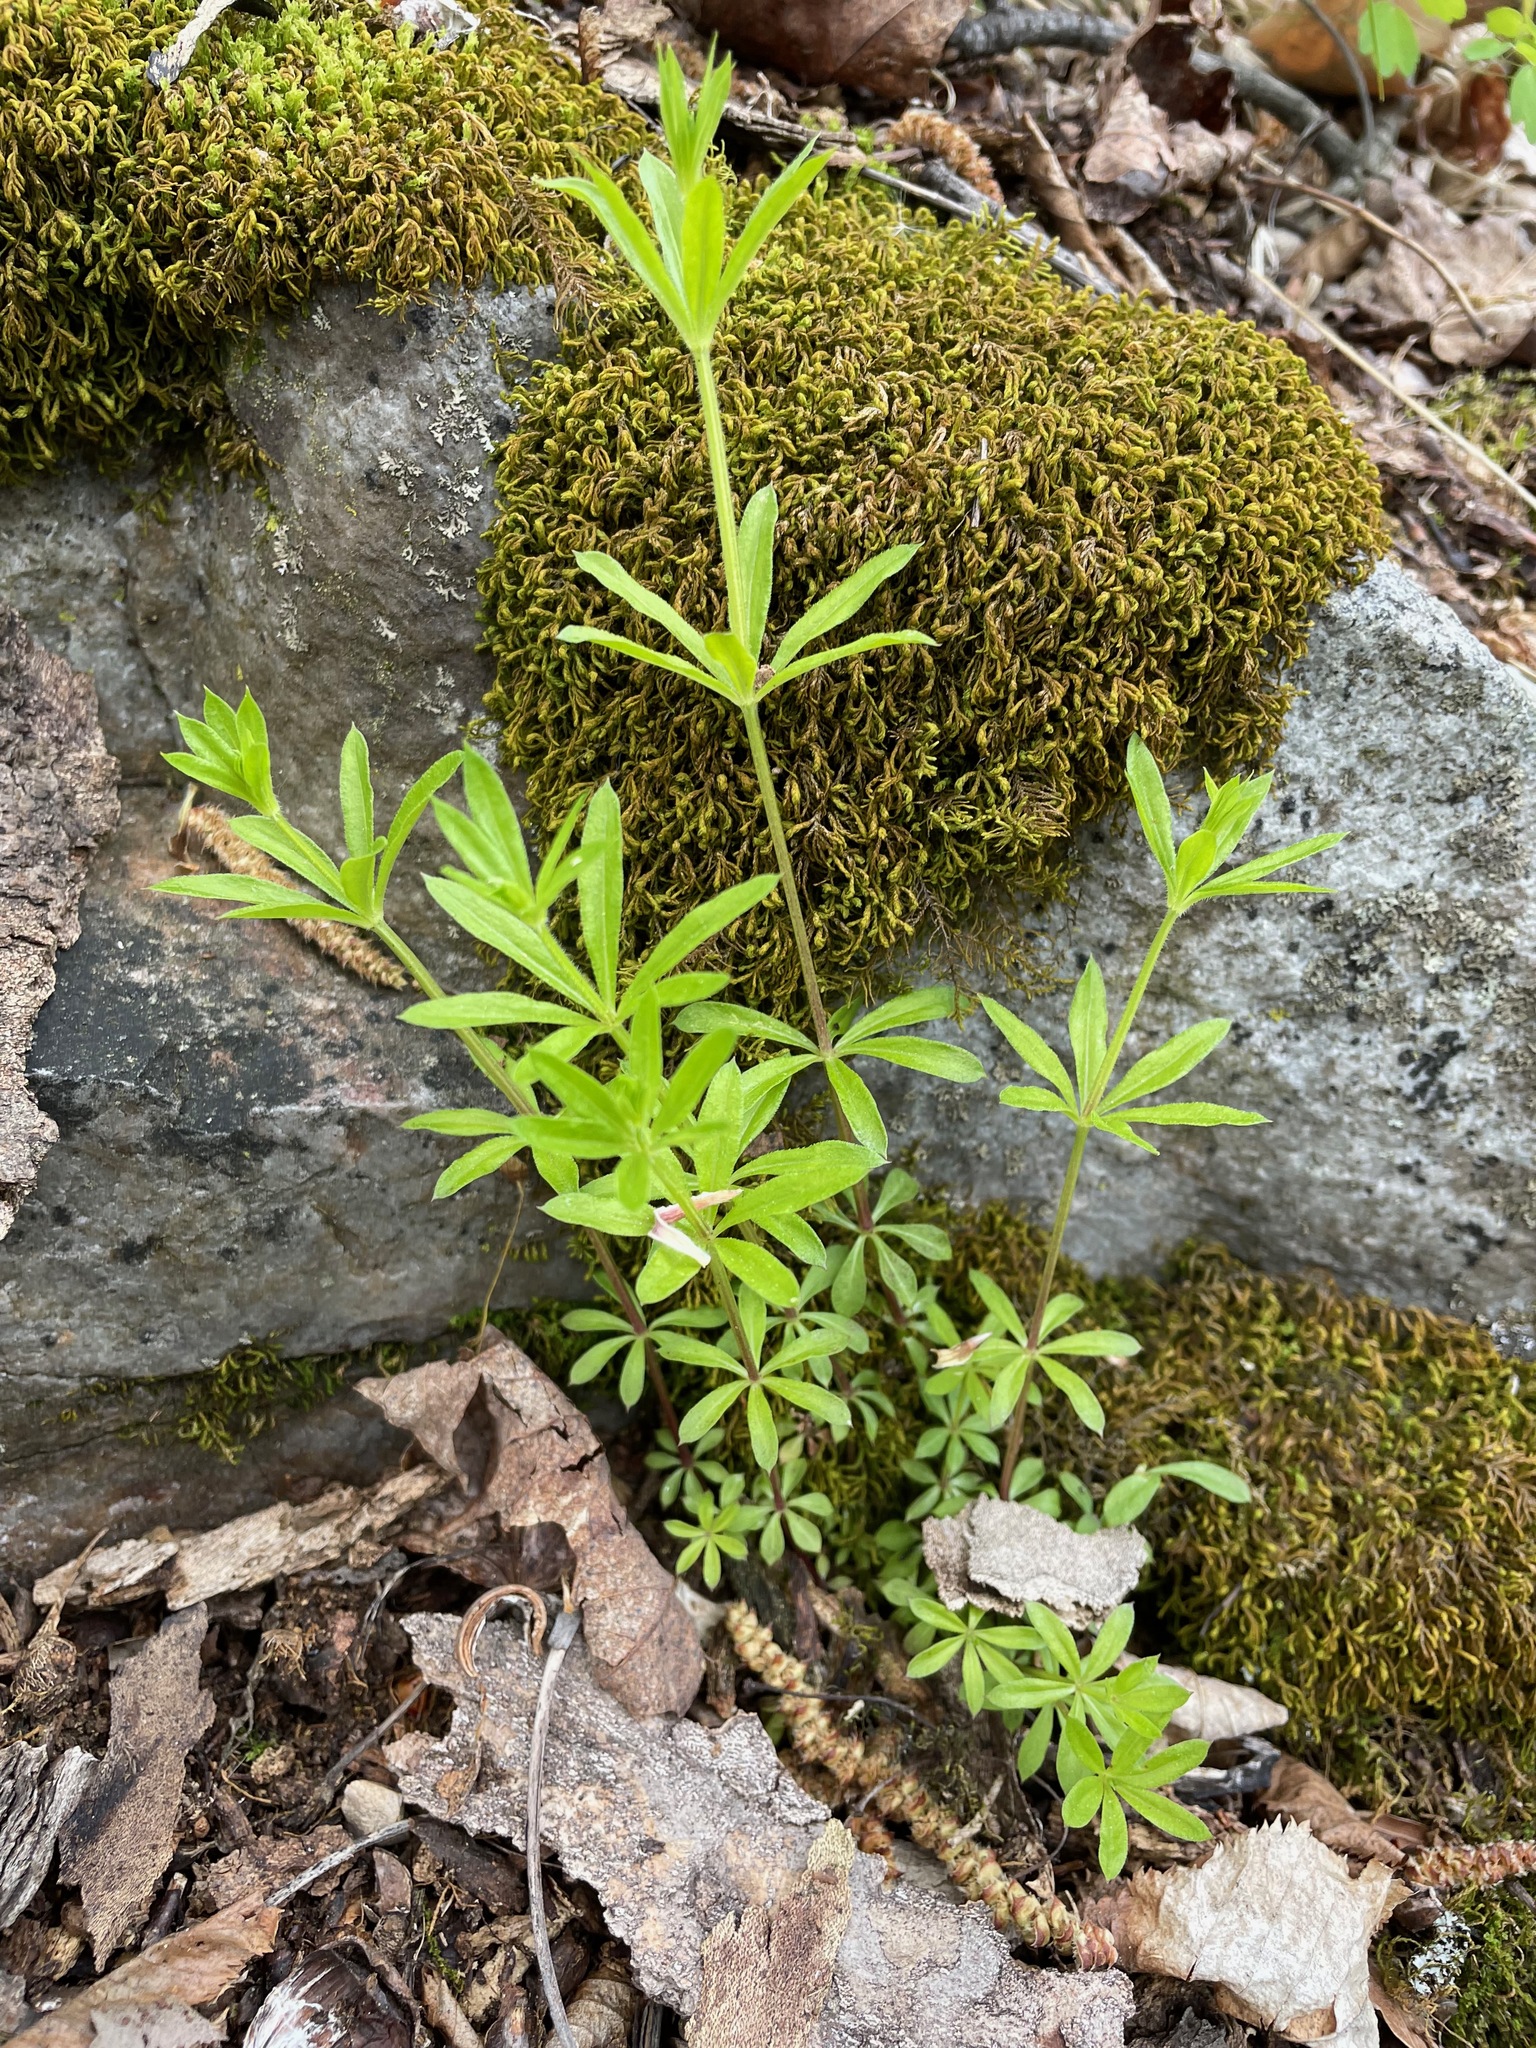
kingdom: Plantae
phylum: Tracheophyta
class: Magnoliopsida
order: Gentianales
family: Rubiaceae
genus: Galium
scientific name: Galium triflorum
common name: Fragrant bedstraw
